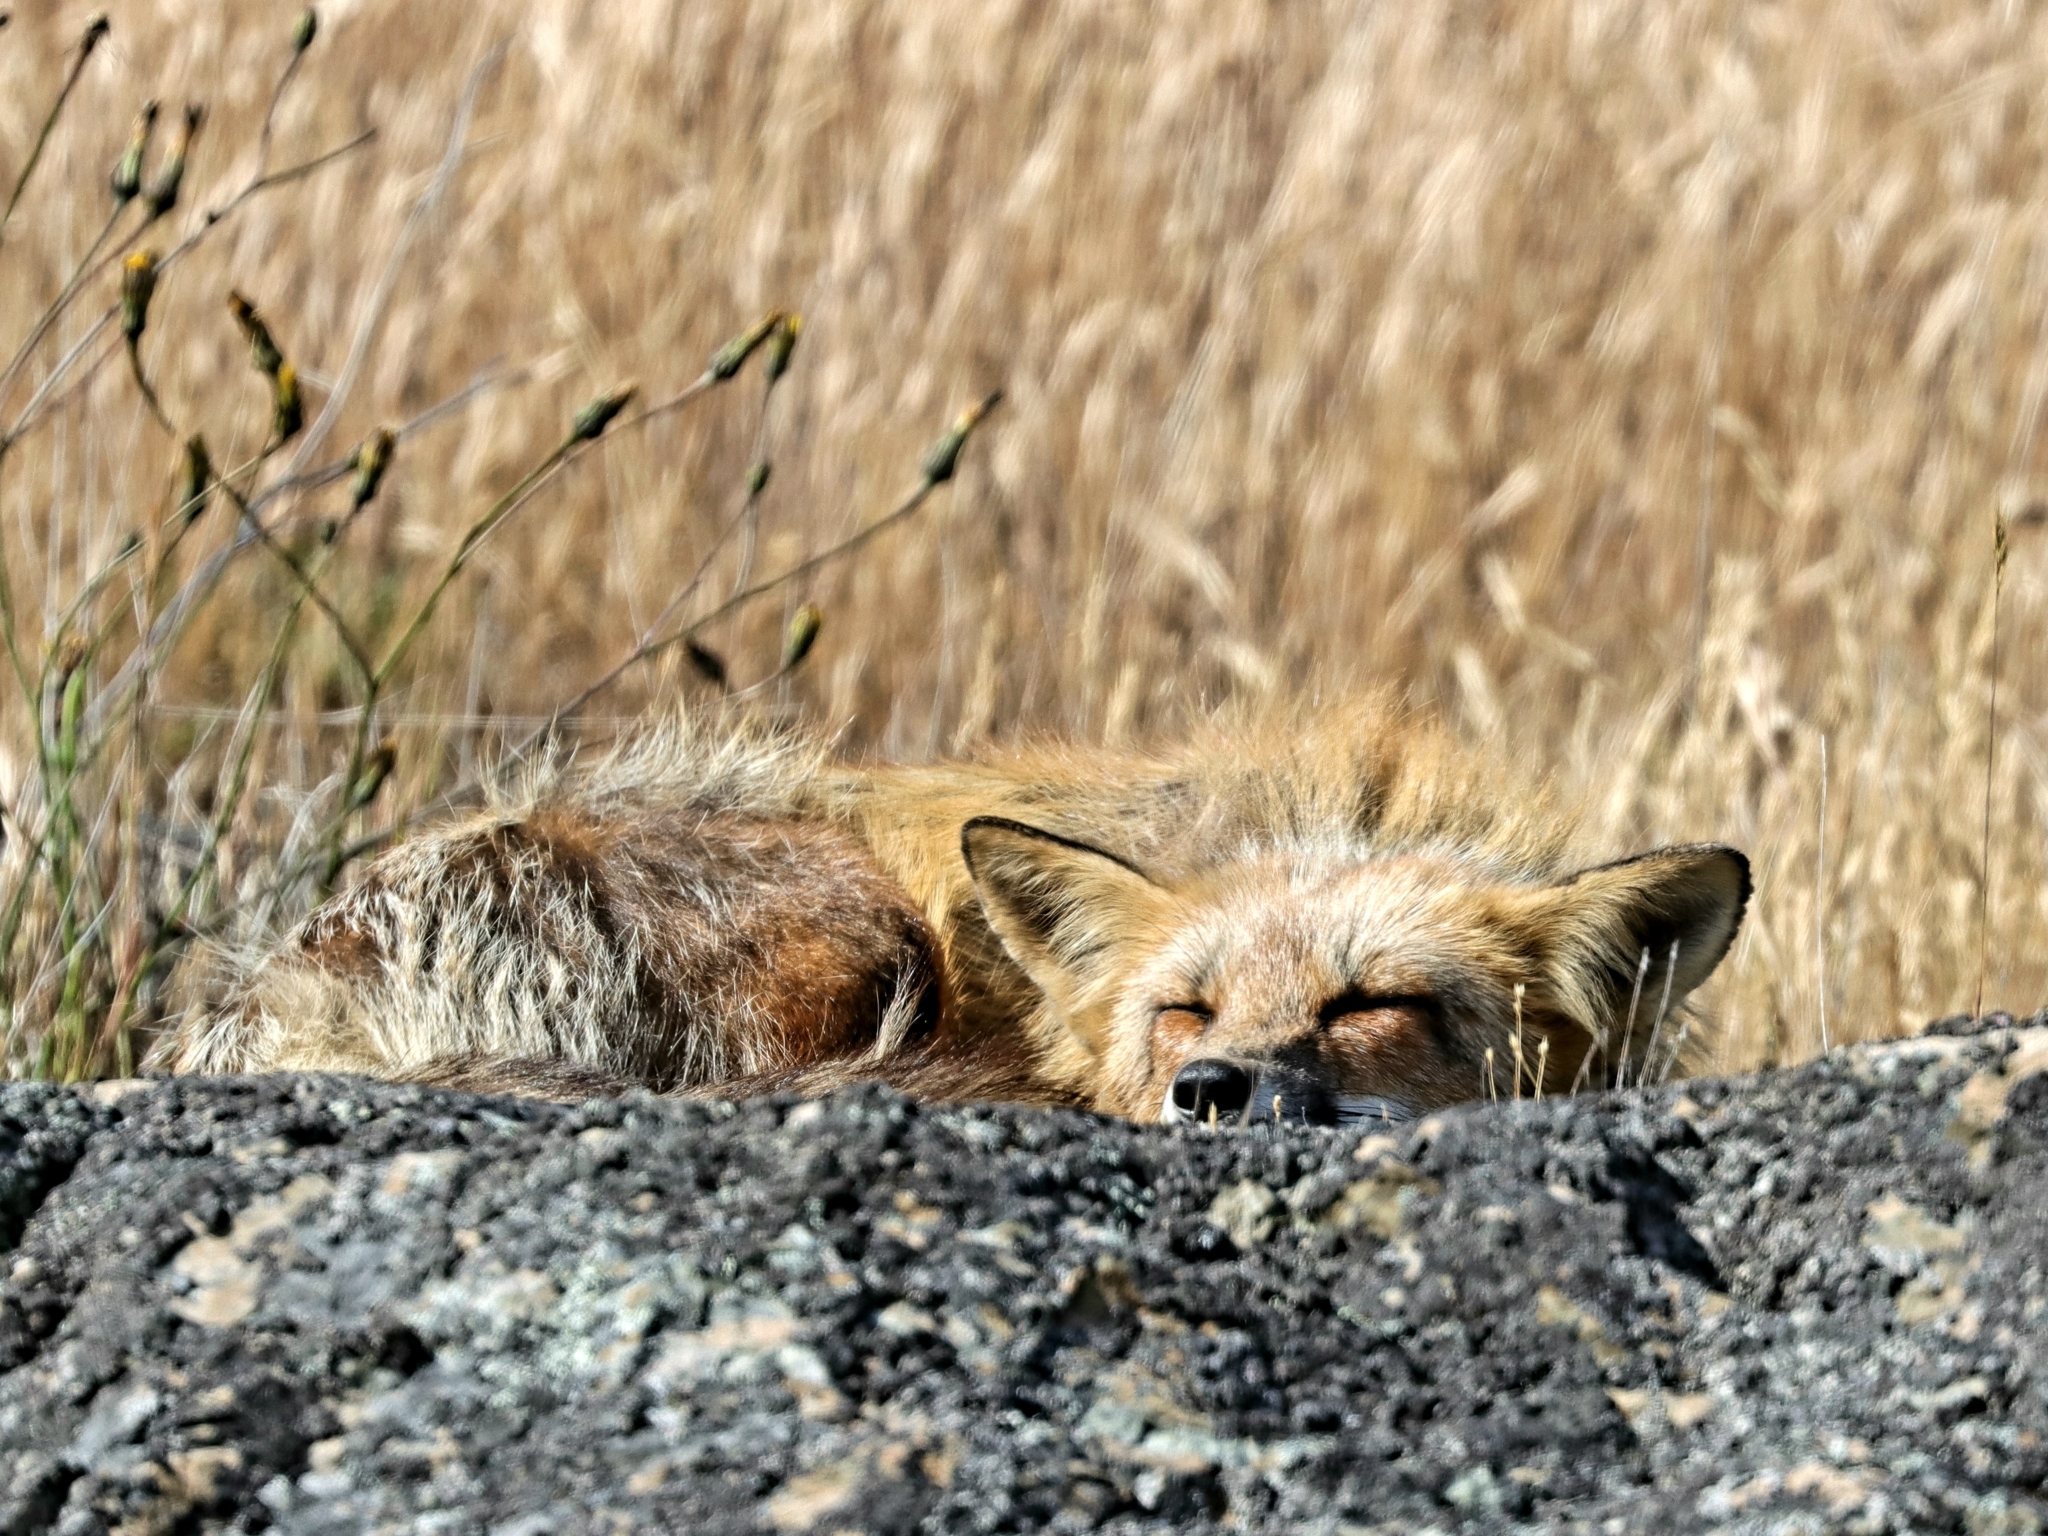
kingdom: Animalia
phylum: Chordata
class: Mammalia
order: Carnivora
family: Canidae
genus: Vulpes
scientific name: Vulpes vulpes
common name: Red fox
